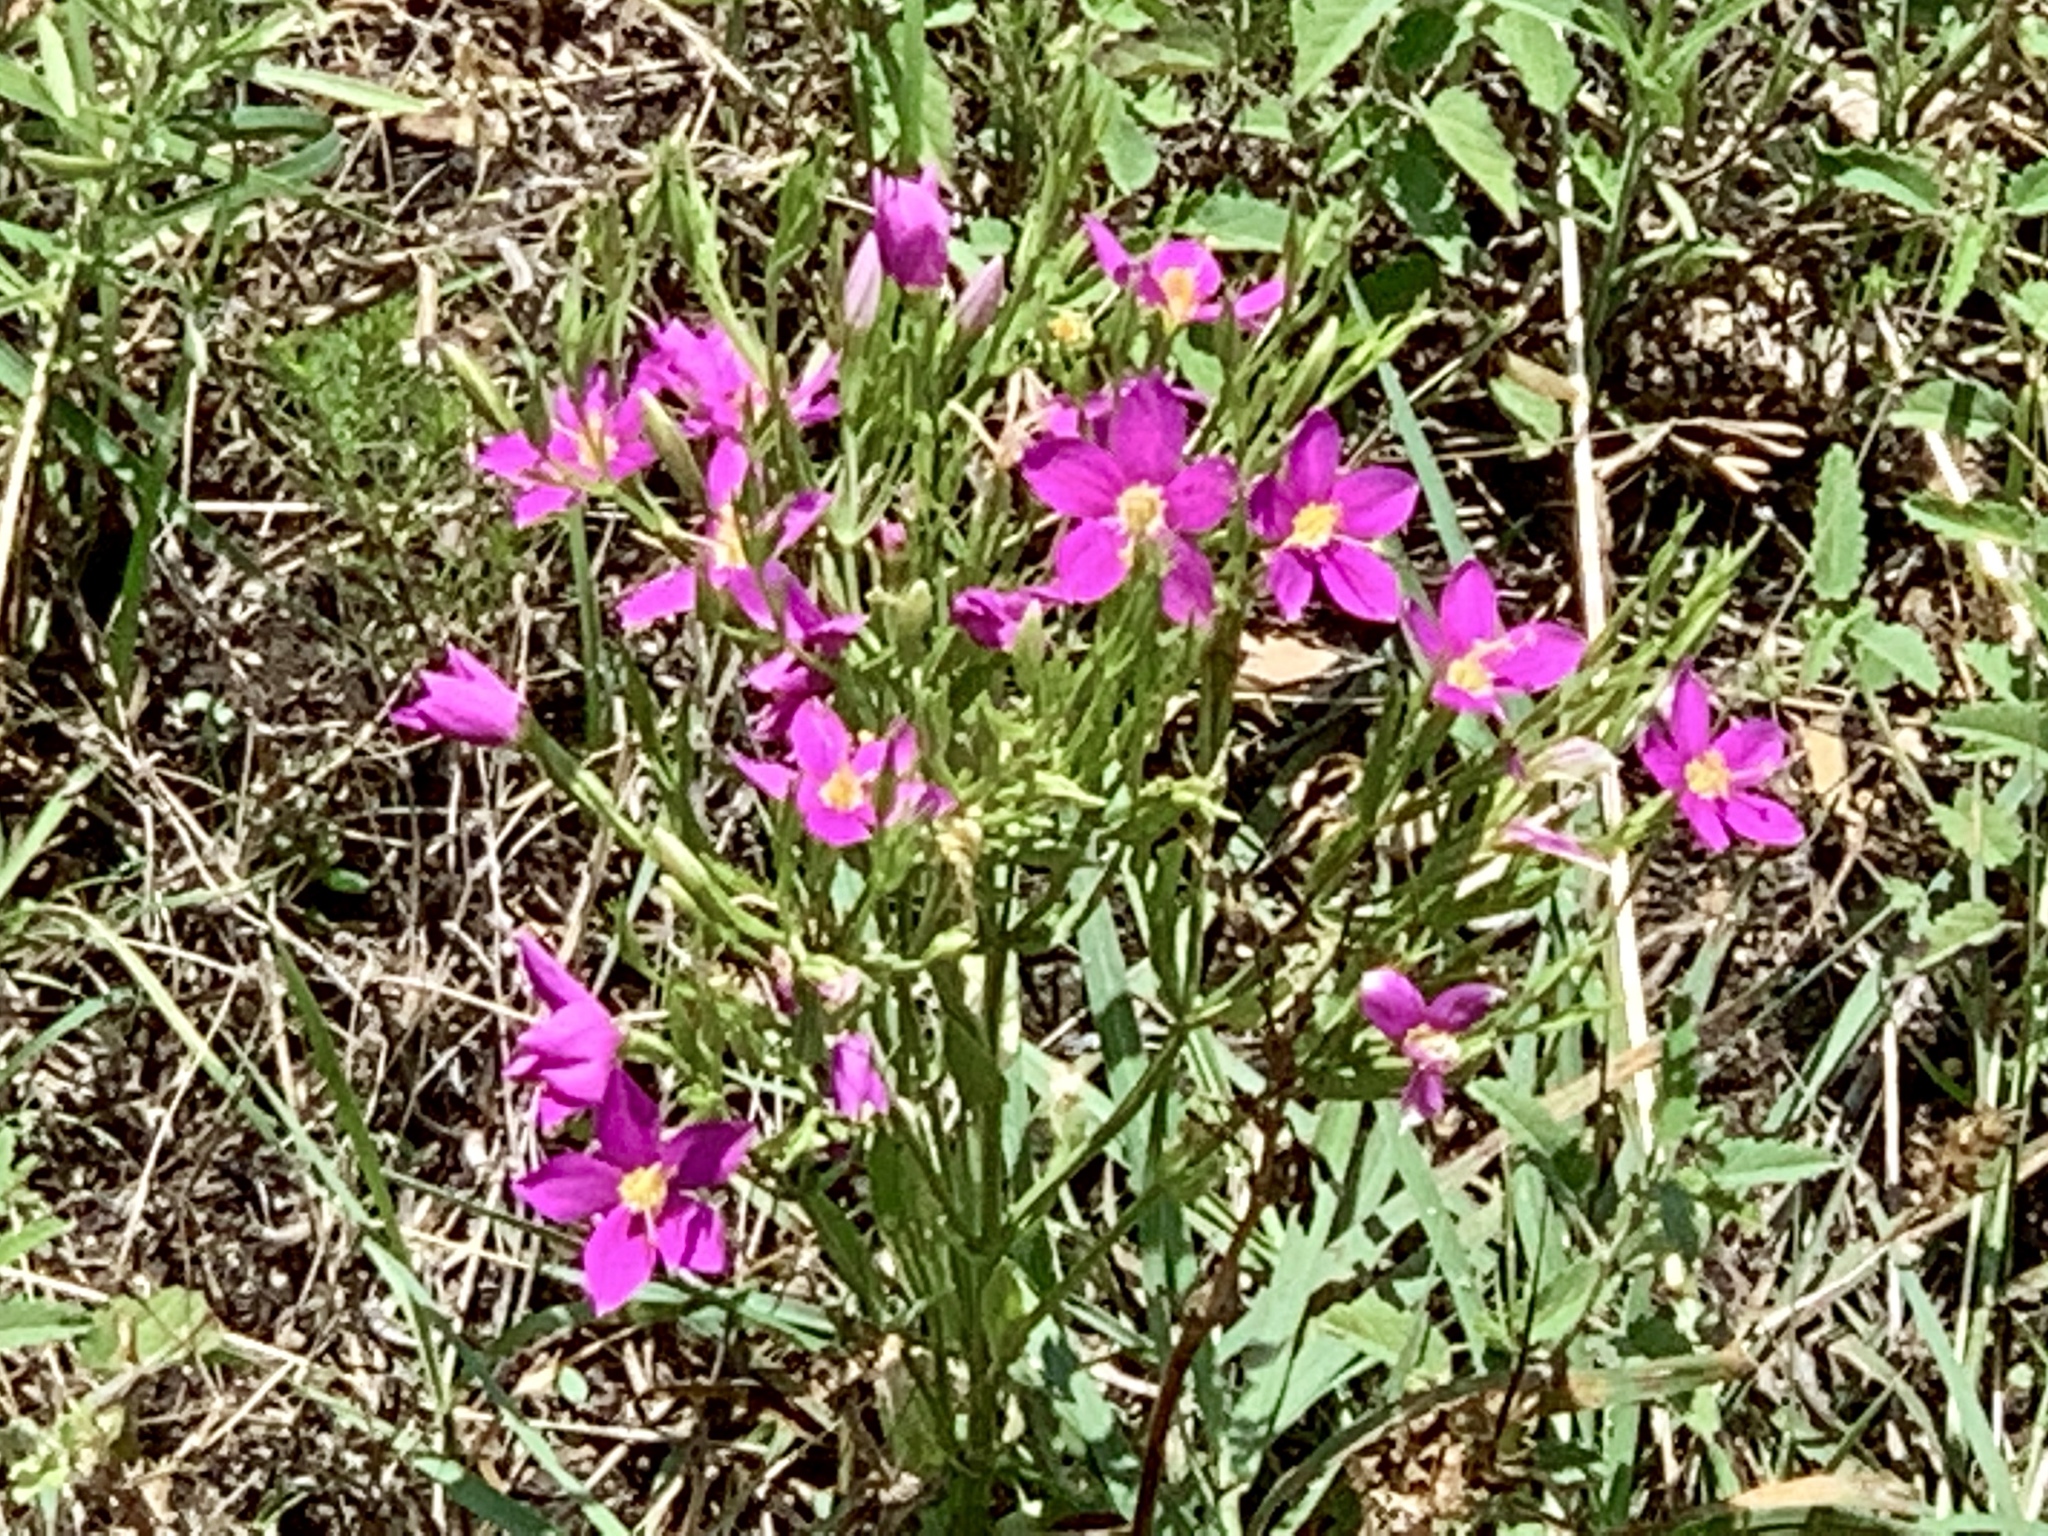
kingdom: Plantae
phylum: Tracheophyta
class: Magnoliopsida
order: Gentianales
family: Gentianaceae
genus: Sabatia
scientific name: Sabatia campestris
